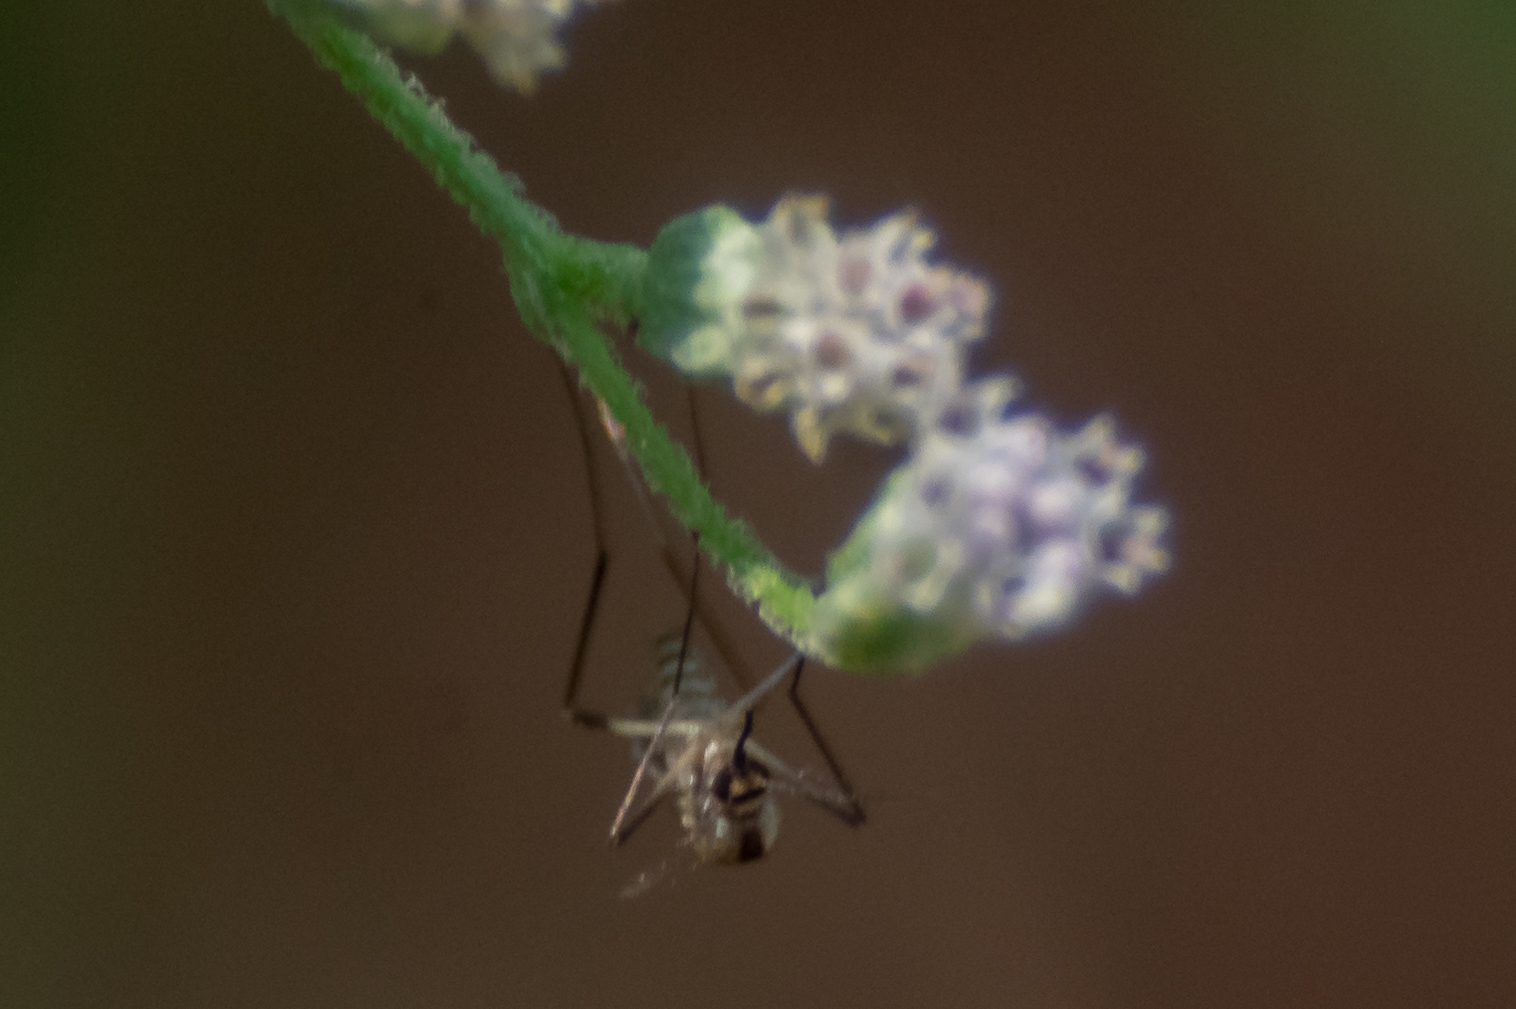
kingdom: Animalia
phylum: Arthropoda
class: Insecta
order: Diptera
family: Culicidae
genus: Aedes
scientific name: Aedes hendersoni
